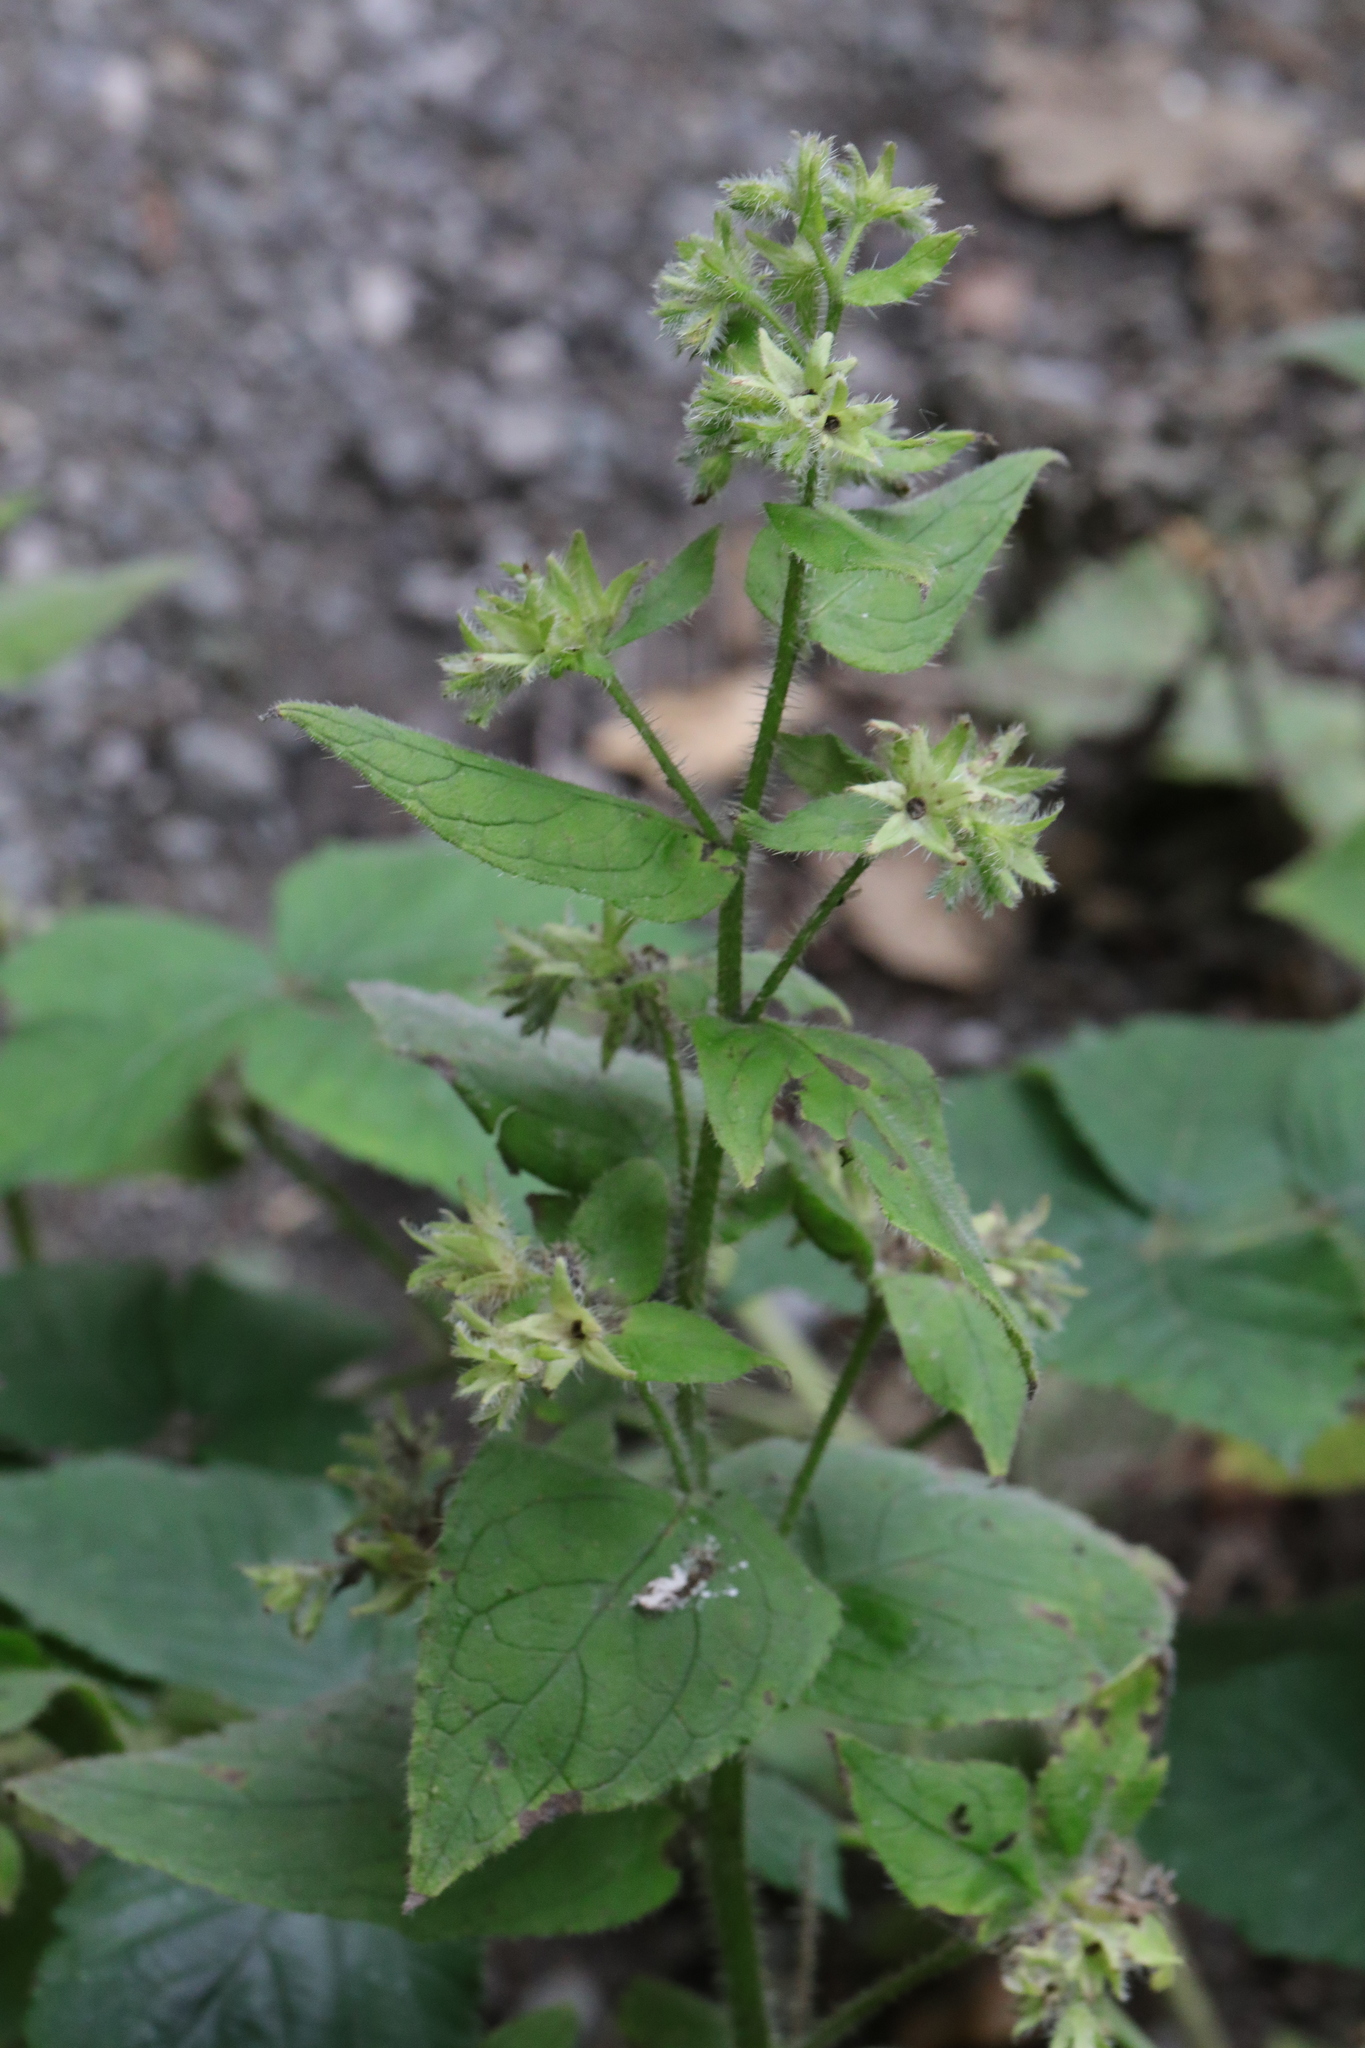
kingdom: Plantae
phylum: Tracheophyta
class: Magnoliopsida
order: Boraginales
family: Boraginaceae
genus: Pentaglottis
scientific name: Pentaglottis sempervirens
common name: Green alkanet
